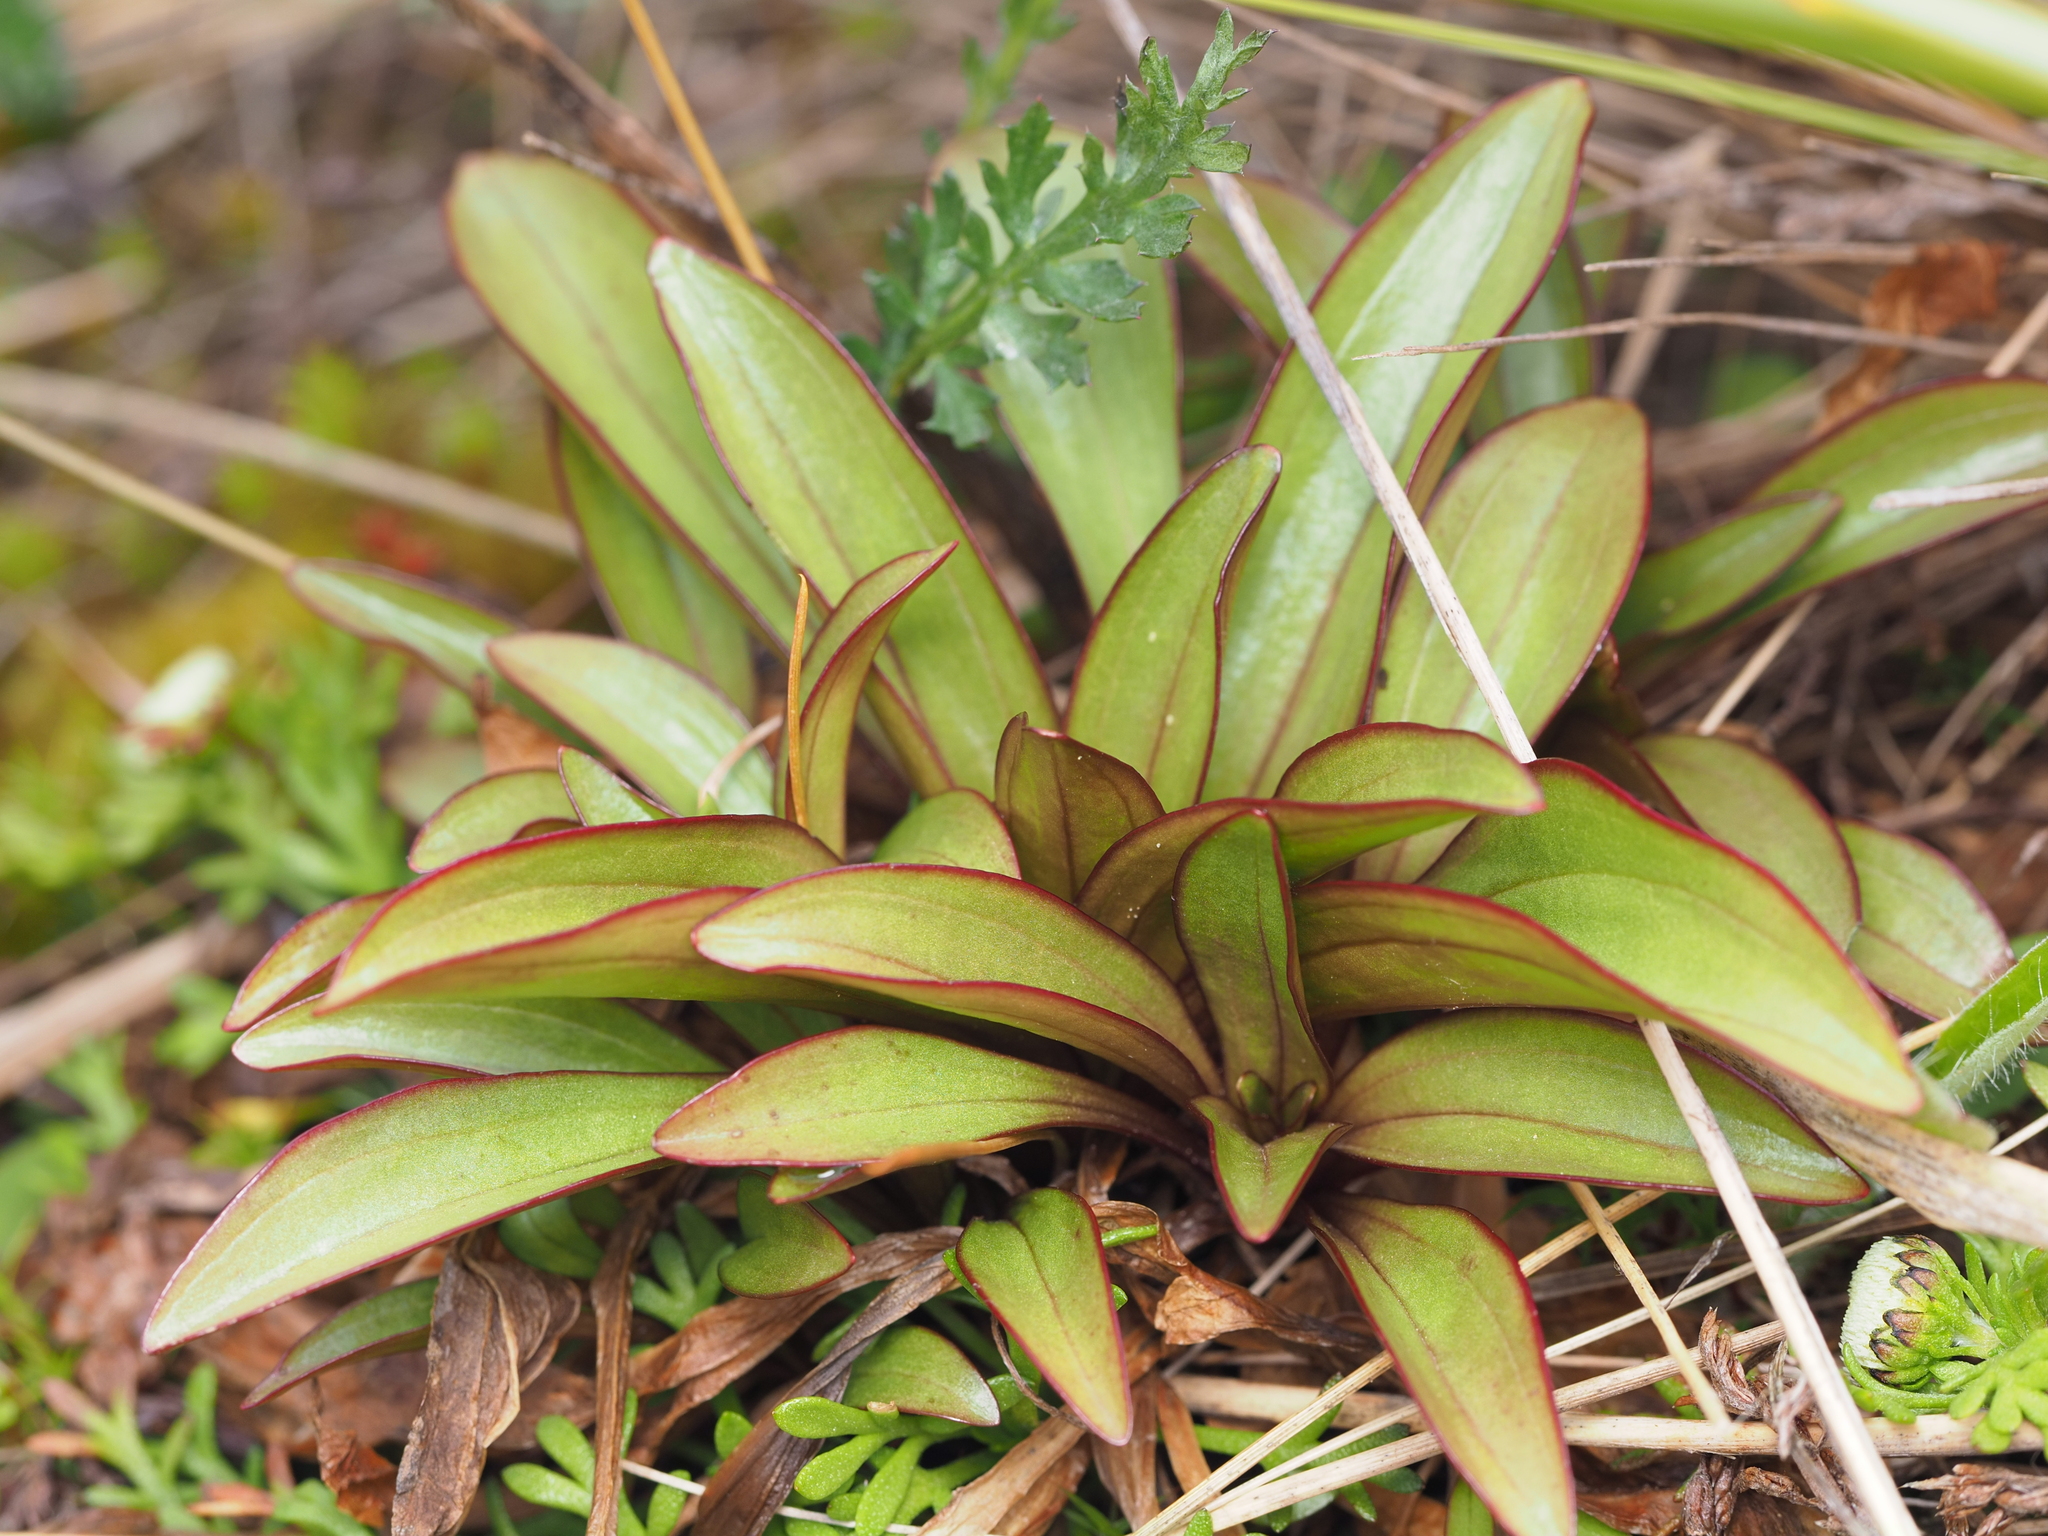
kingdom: Plantae
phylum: Tracheophyta
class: Magnoliopsida
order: Gentianales
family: Gentianaceae
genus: Gentianella
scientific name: Gentianella corymbifera
